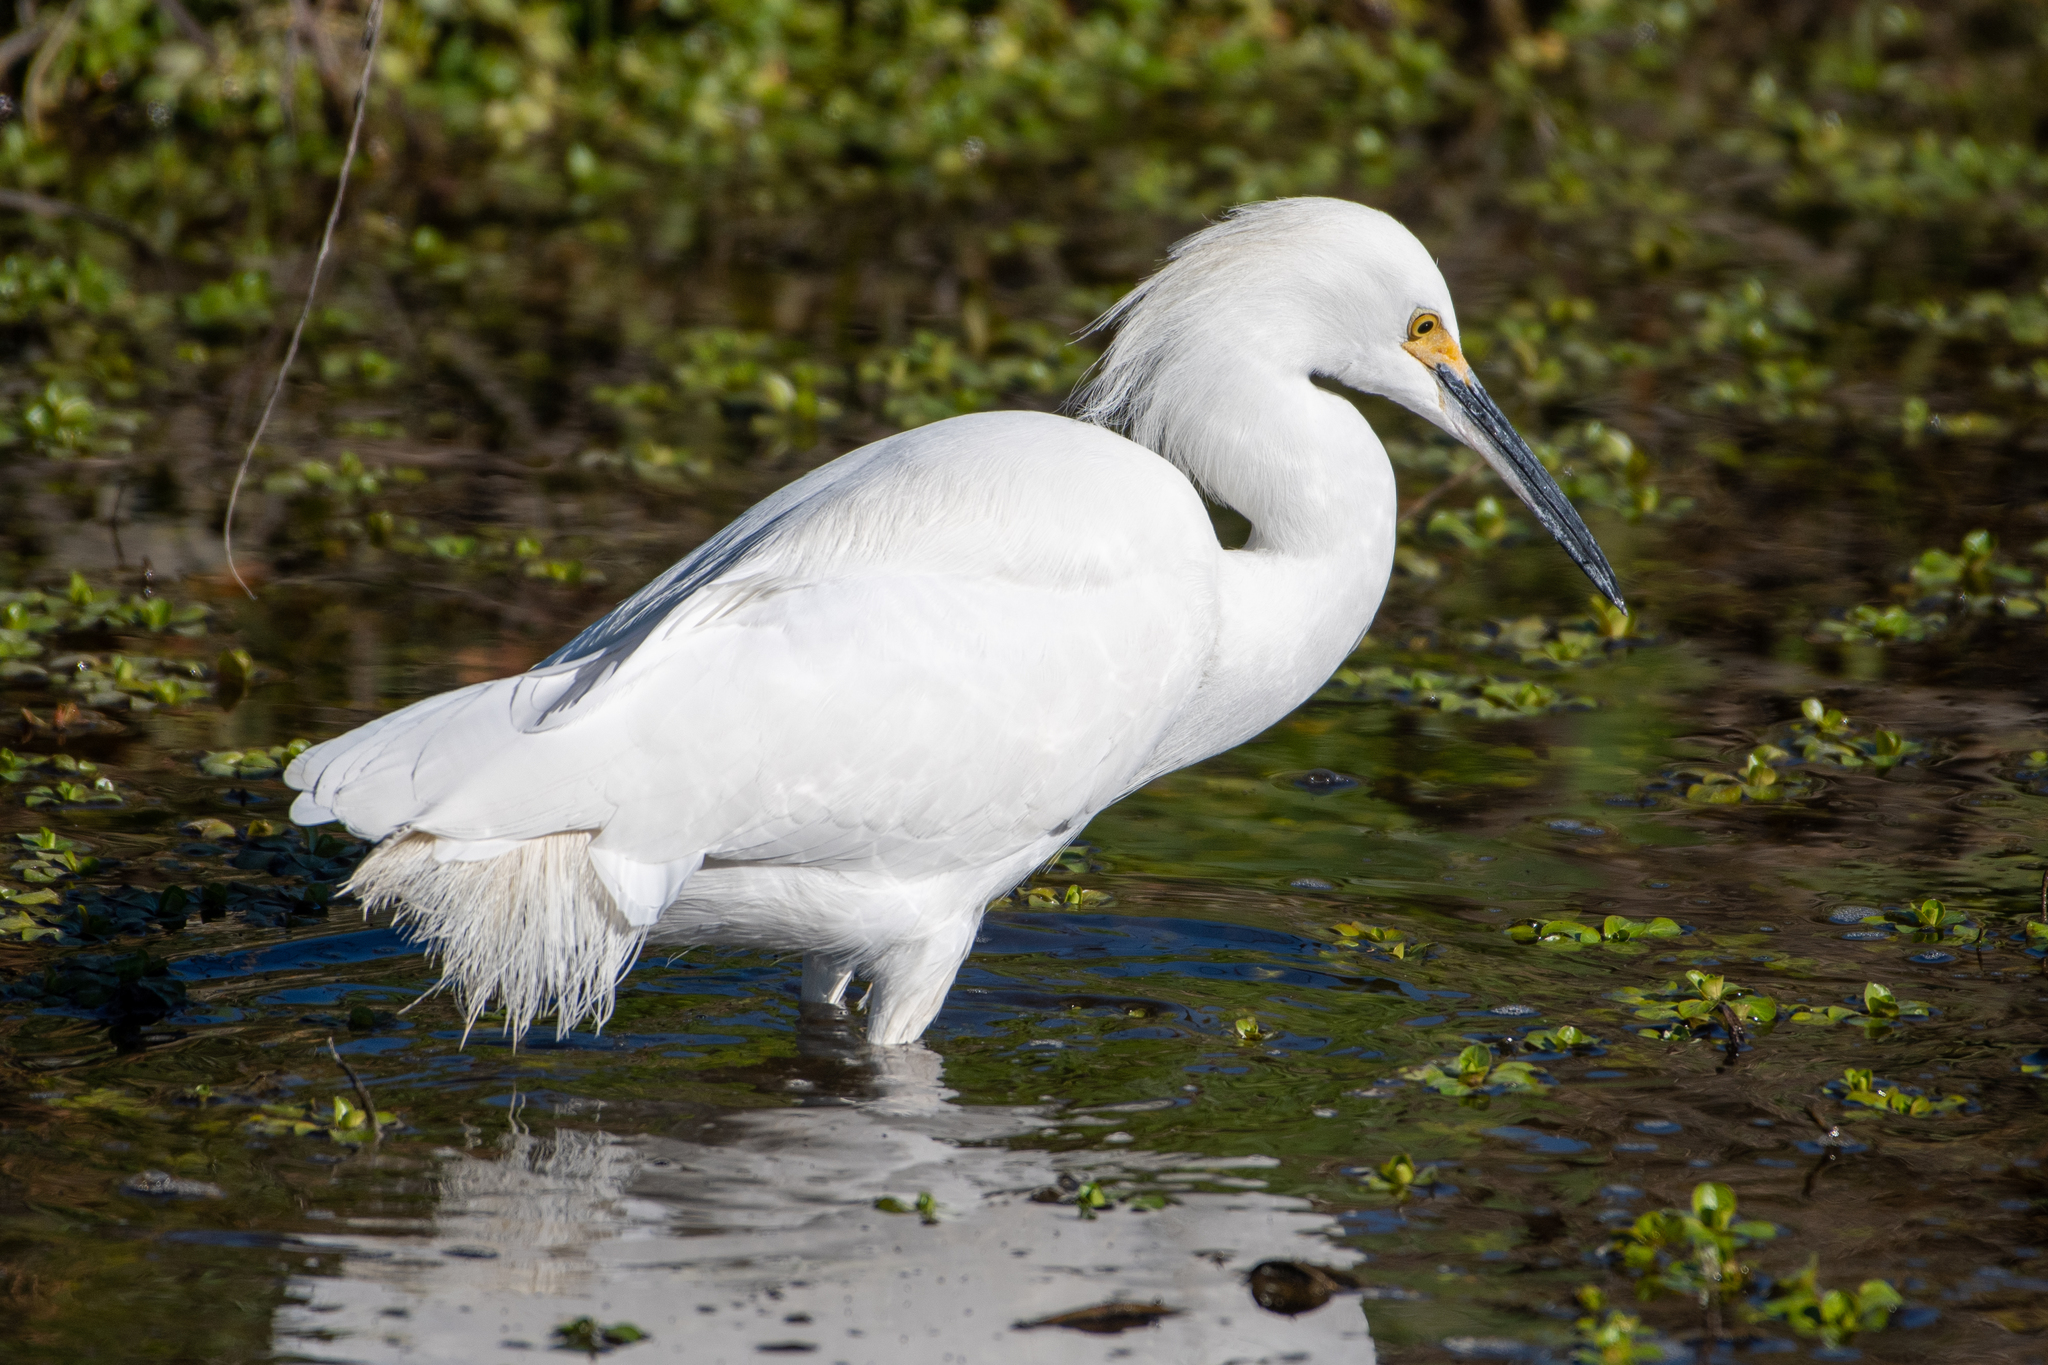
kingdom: Animalia
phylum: Chordata
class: Aves
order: Pelecaniformes
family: Ardeidae
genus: Egretta
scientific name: Egretta thula
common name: Snowy egret
